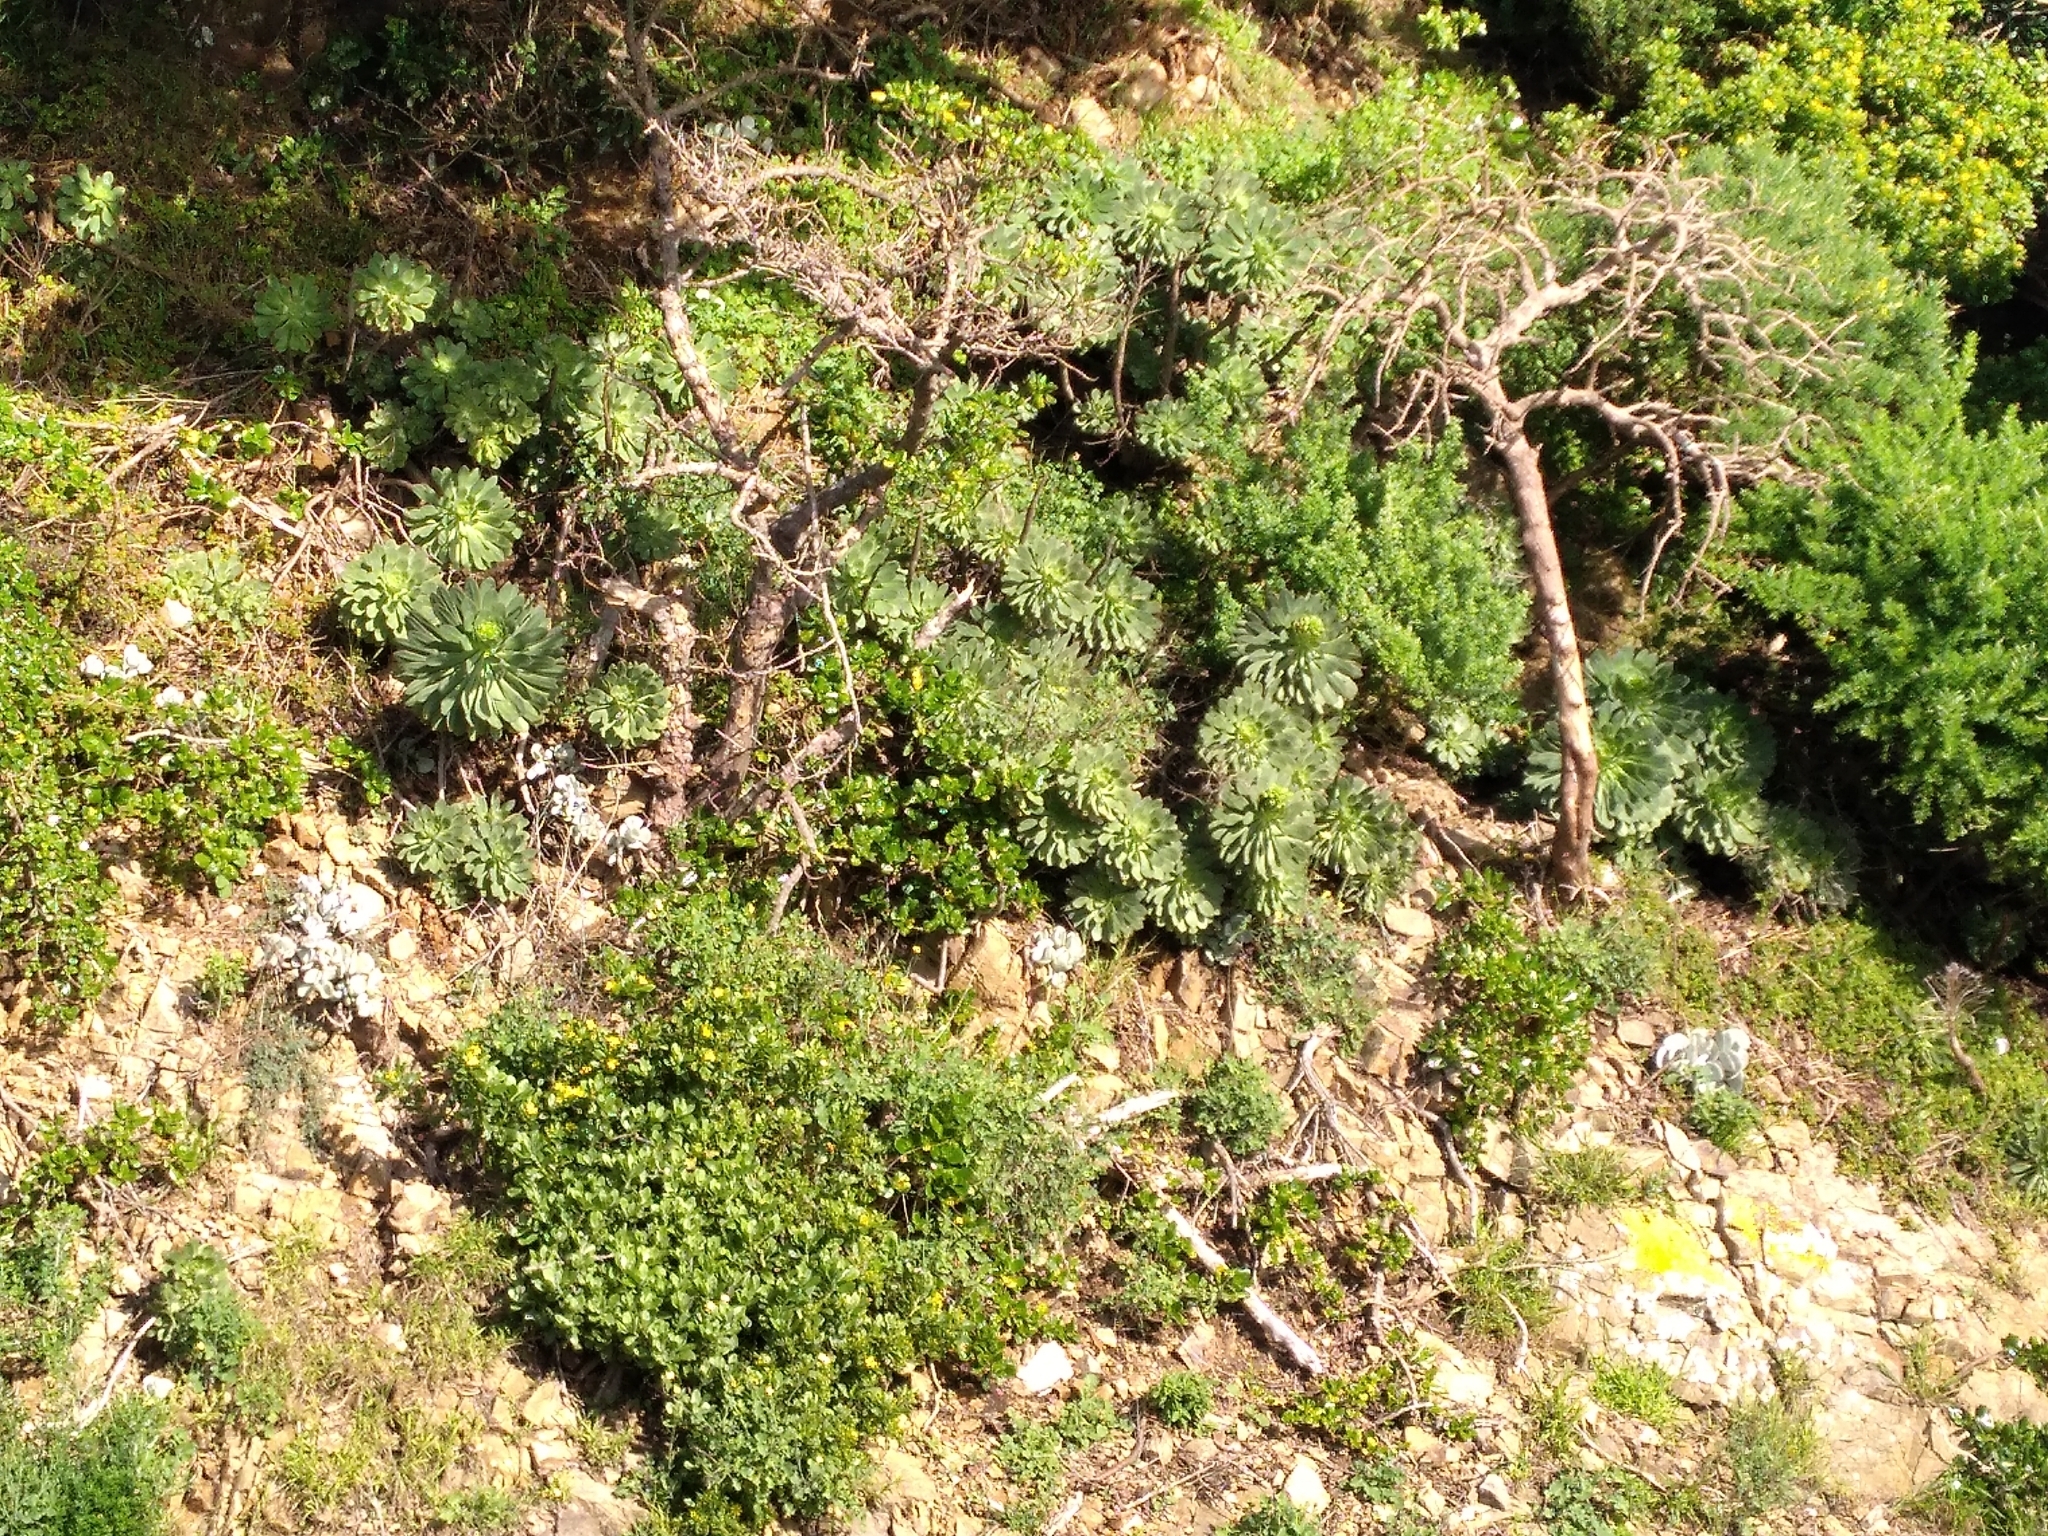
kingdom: Plantae
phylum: Tracheophyta
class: Magnoliopsida
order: Saxifragales
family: Crassulaceae
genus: Aeonium
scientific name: Aeonium arboreum
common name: Tree aeonium
